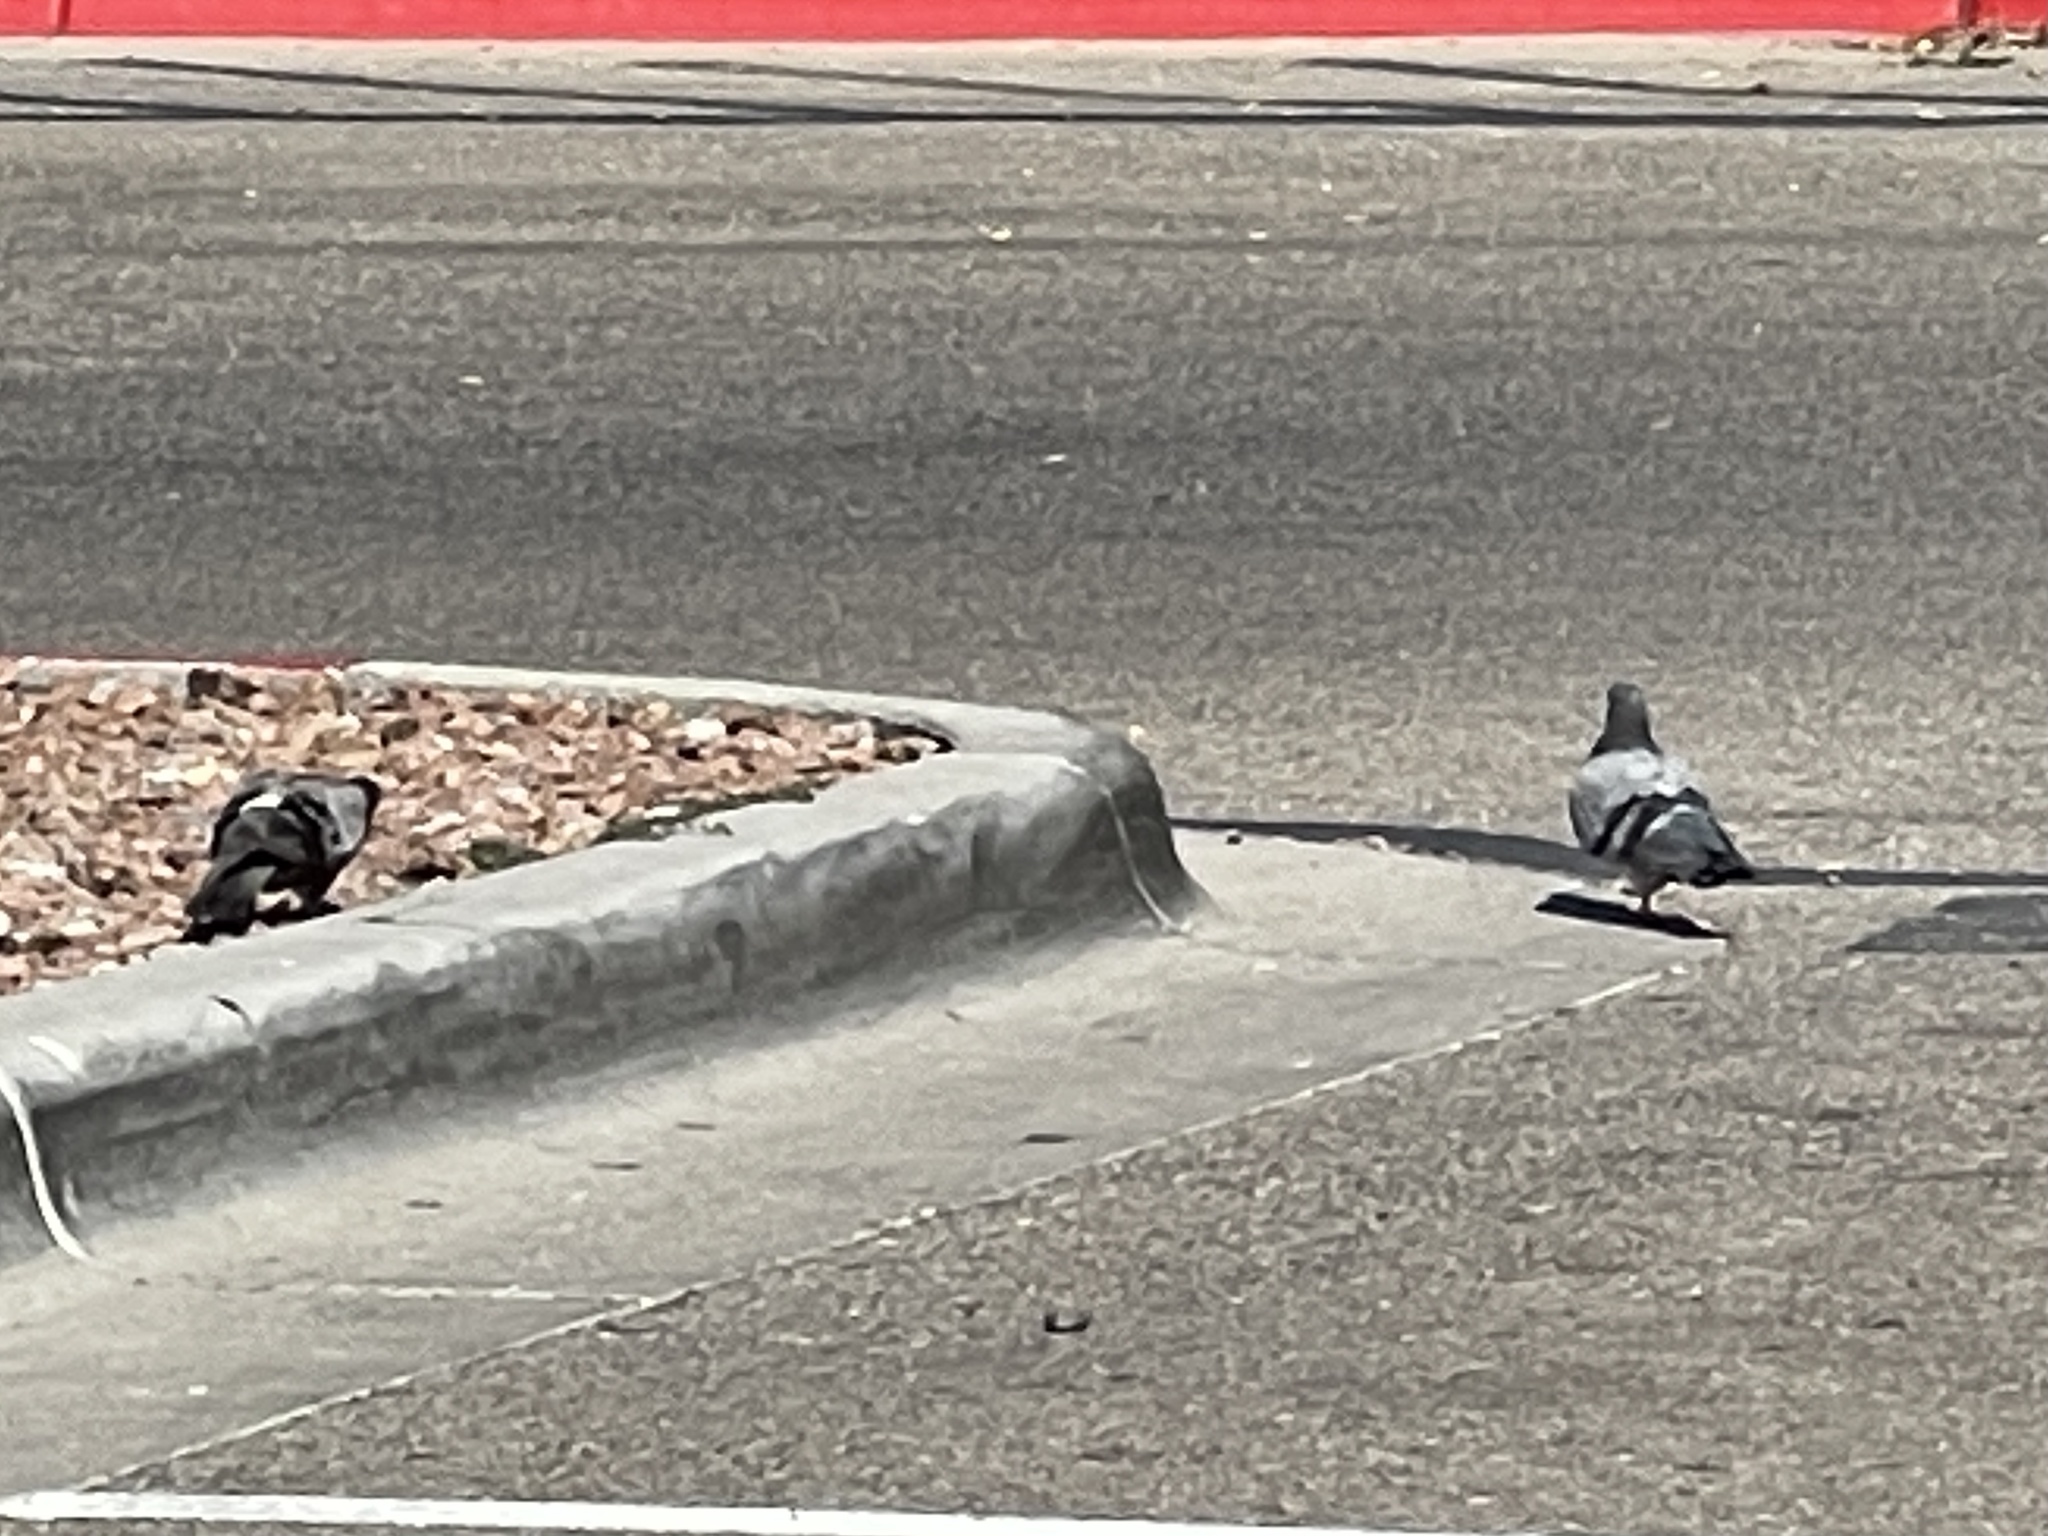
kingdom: Animalia
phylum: Chordata
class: Aves
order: Columbiformes
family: Columbidae
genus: Columba
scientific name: Columba livia
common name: Rock pigeon
